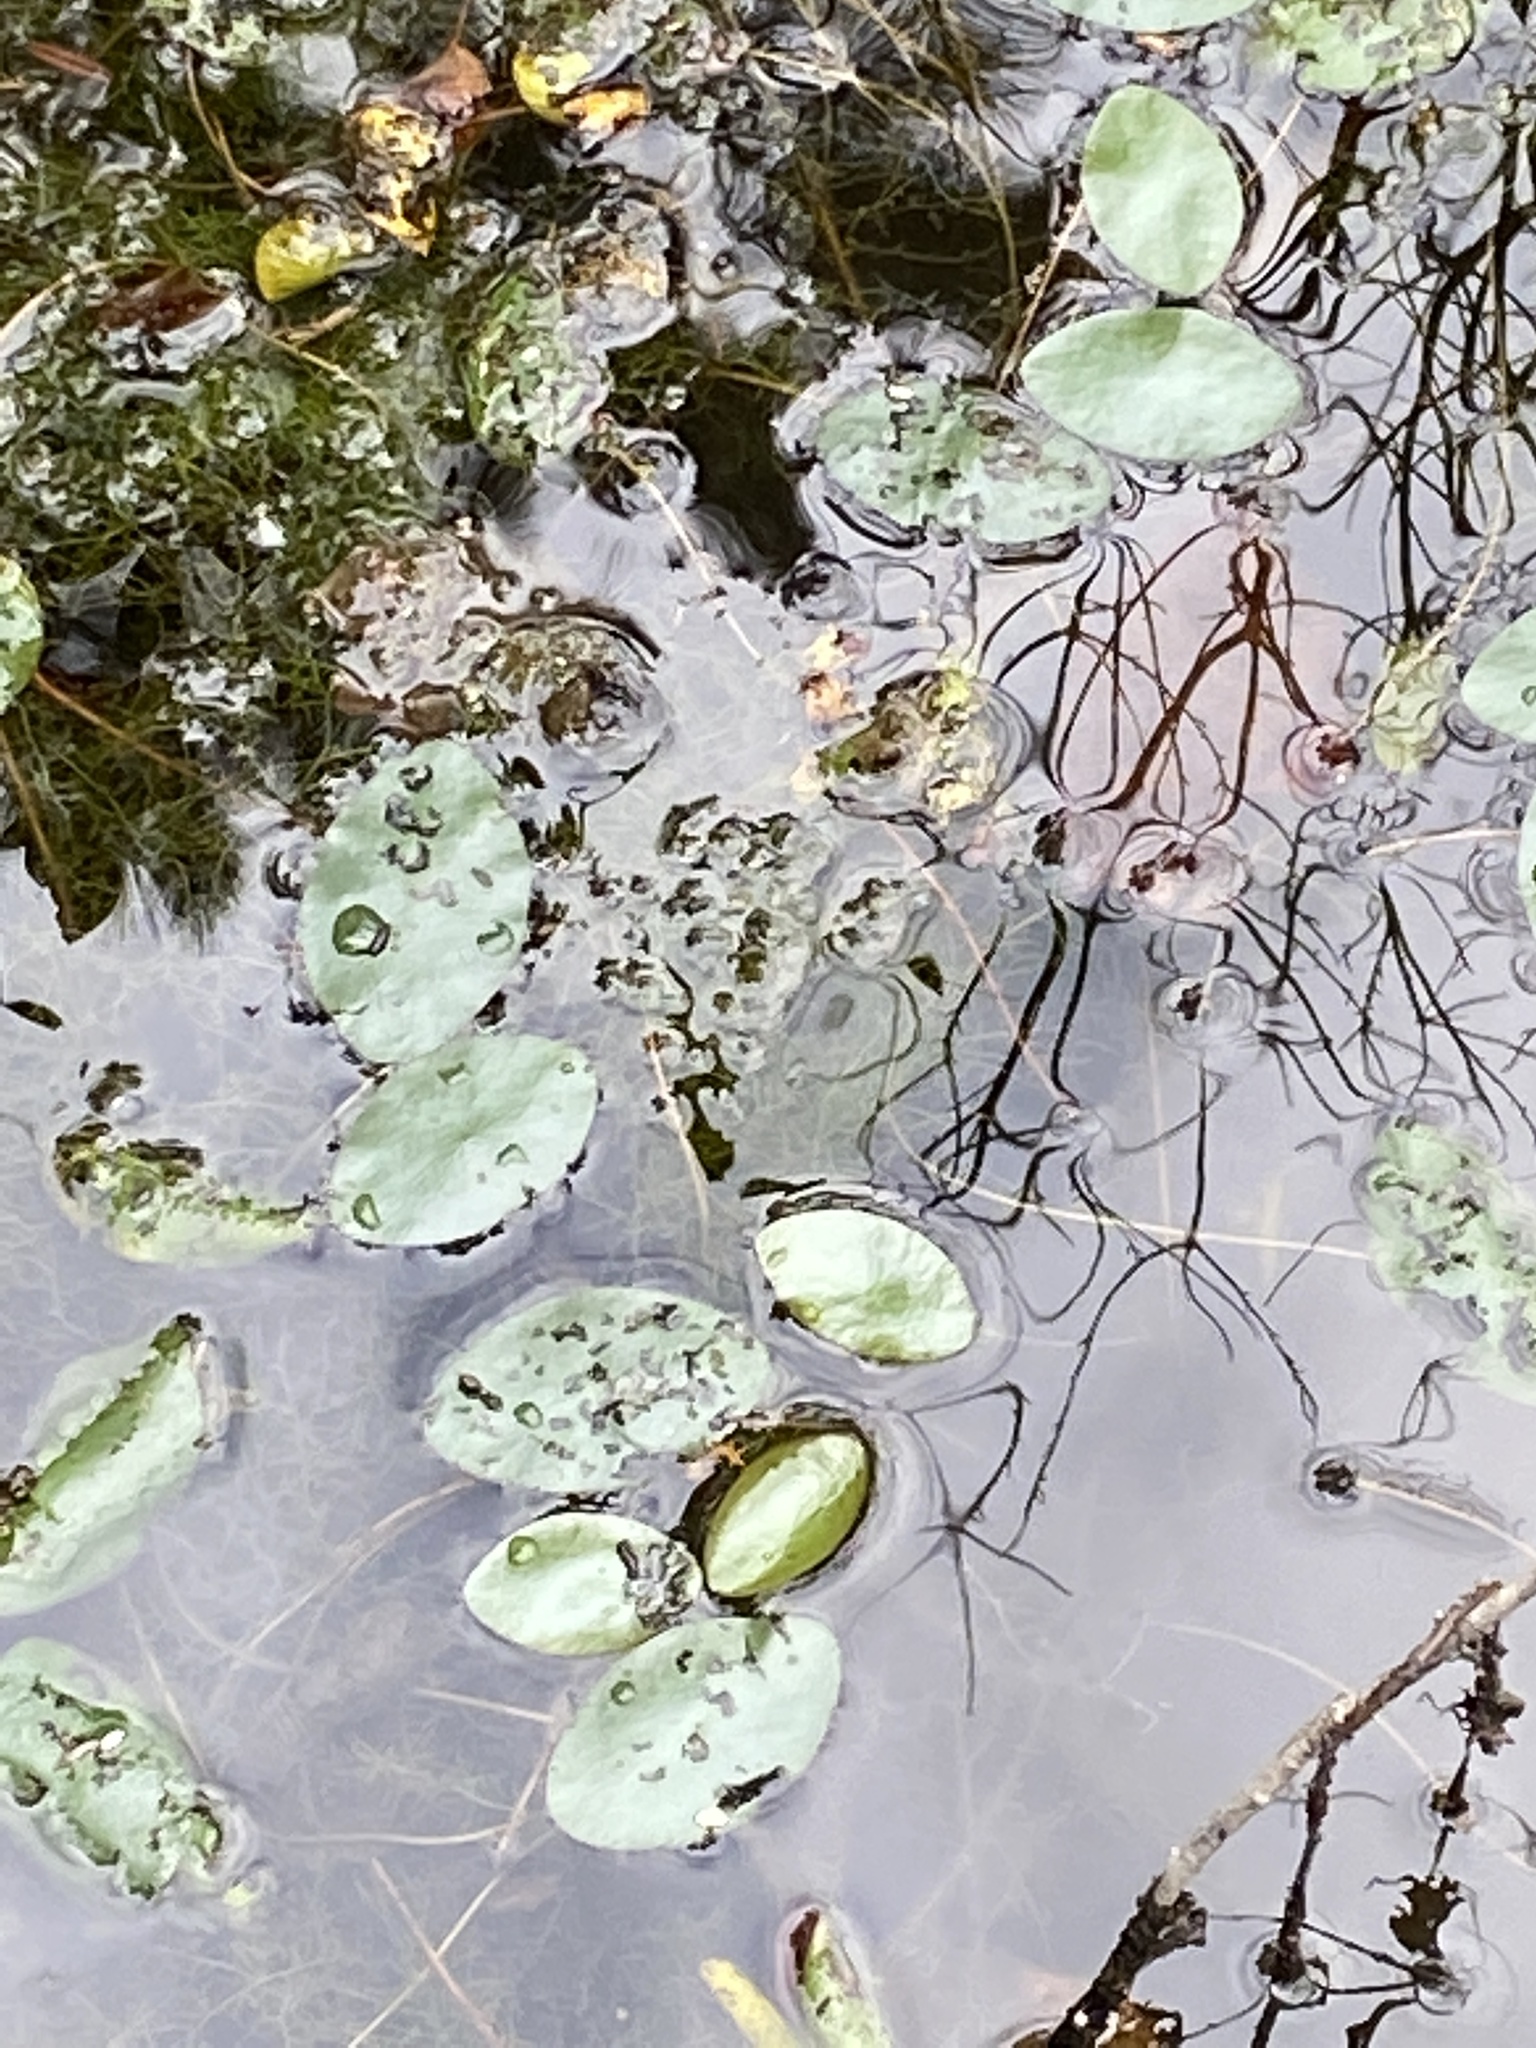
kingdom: Plantae
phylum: Tracheophyta
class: Magnoliopsida
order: Nymphaeales
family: Cabombaceae
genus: Brasenia
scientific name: Brasenia schreberi
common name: Water-shield
